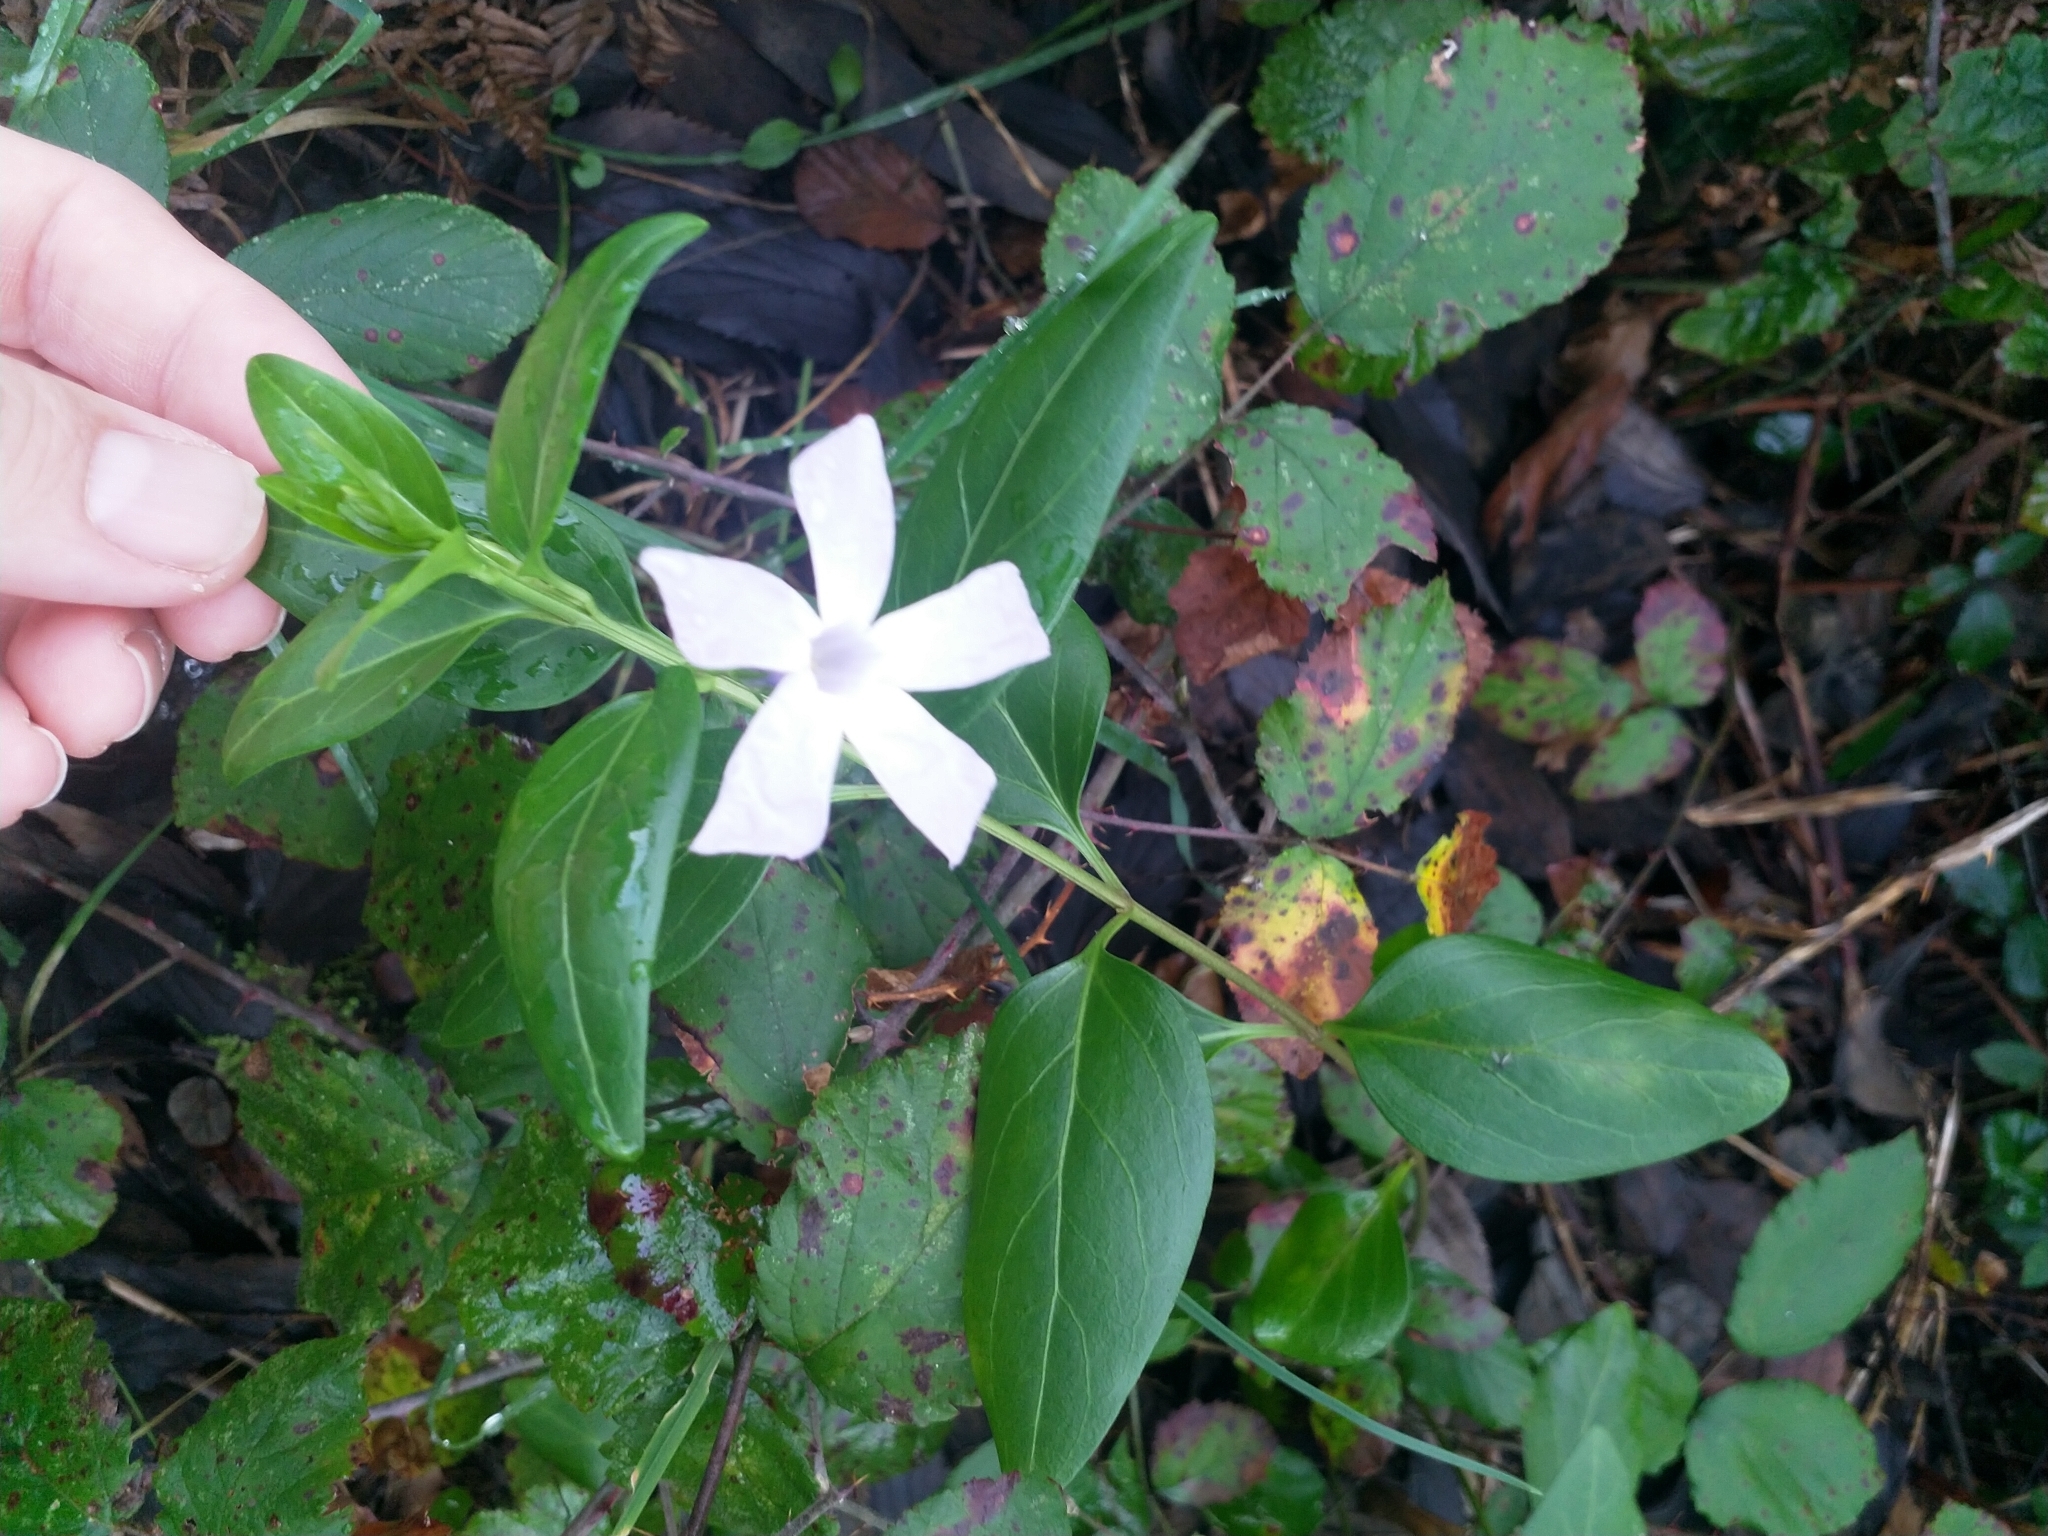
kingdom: Plantae
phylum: Tracheophyta
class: Magnoliopsida
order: Gentianales
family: Apocynaceae
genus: Vinca
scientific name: Vinca difformis
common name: Intermediate periwinkle
